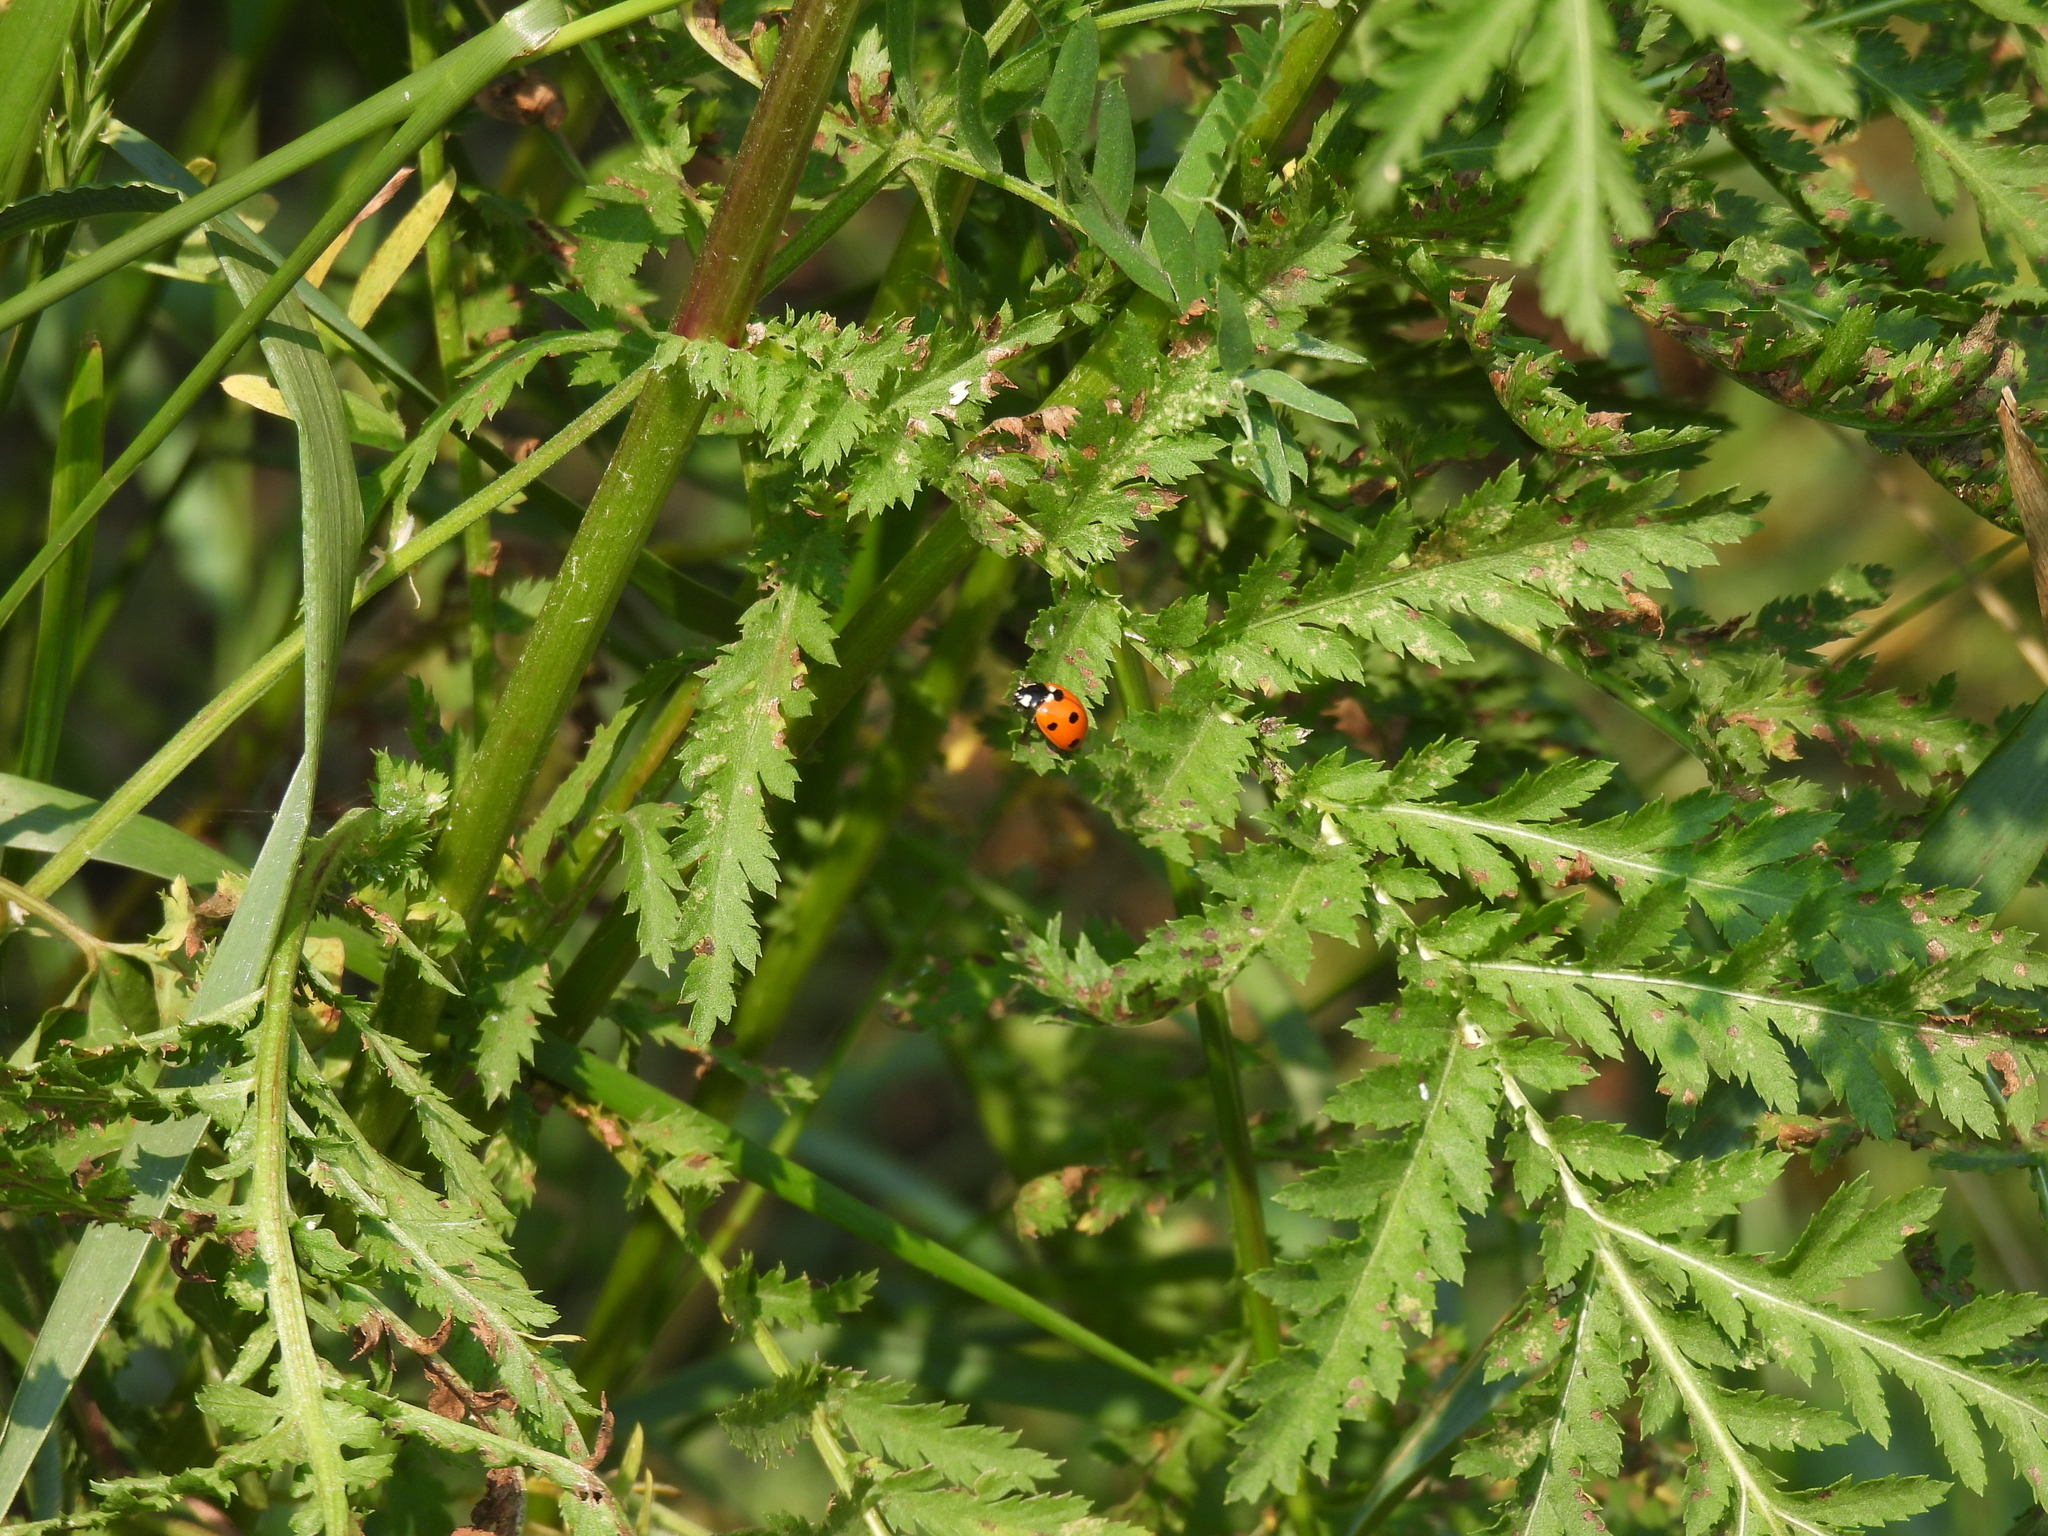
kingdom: Animalia
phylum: Arthropoda
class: Insecta
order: Coleoptera
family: Coccinellidae
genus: Coccinella
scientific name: Coccinella septempunctata
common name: Sevenspotted lady beetle
